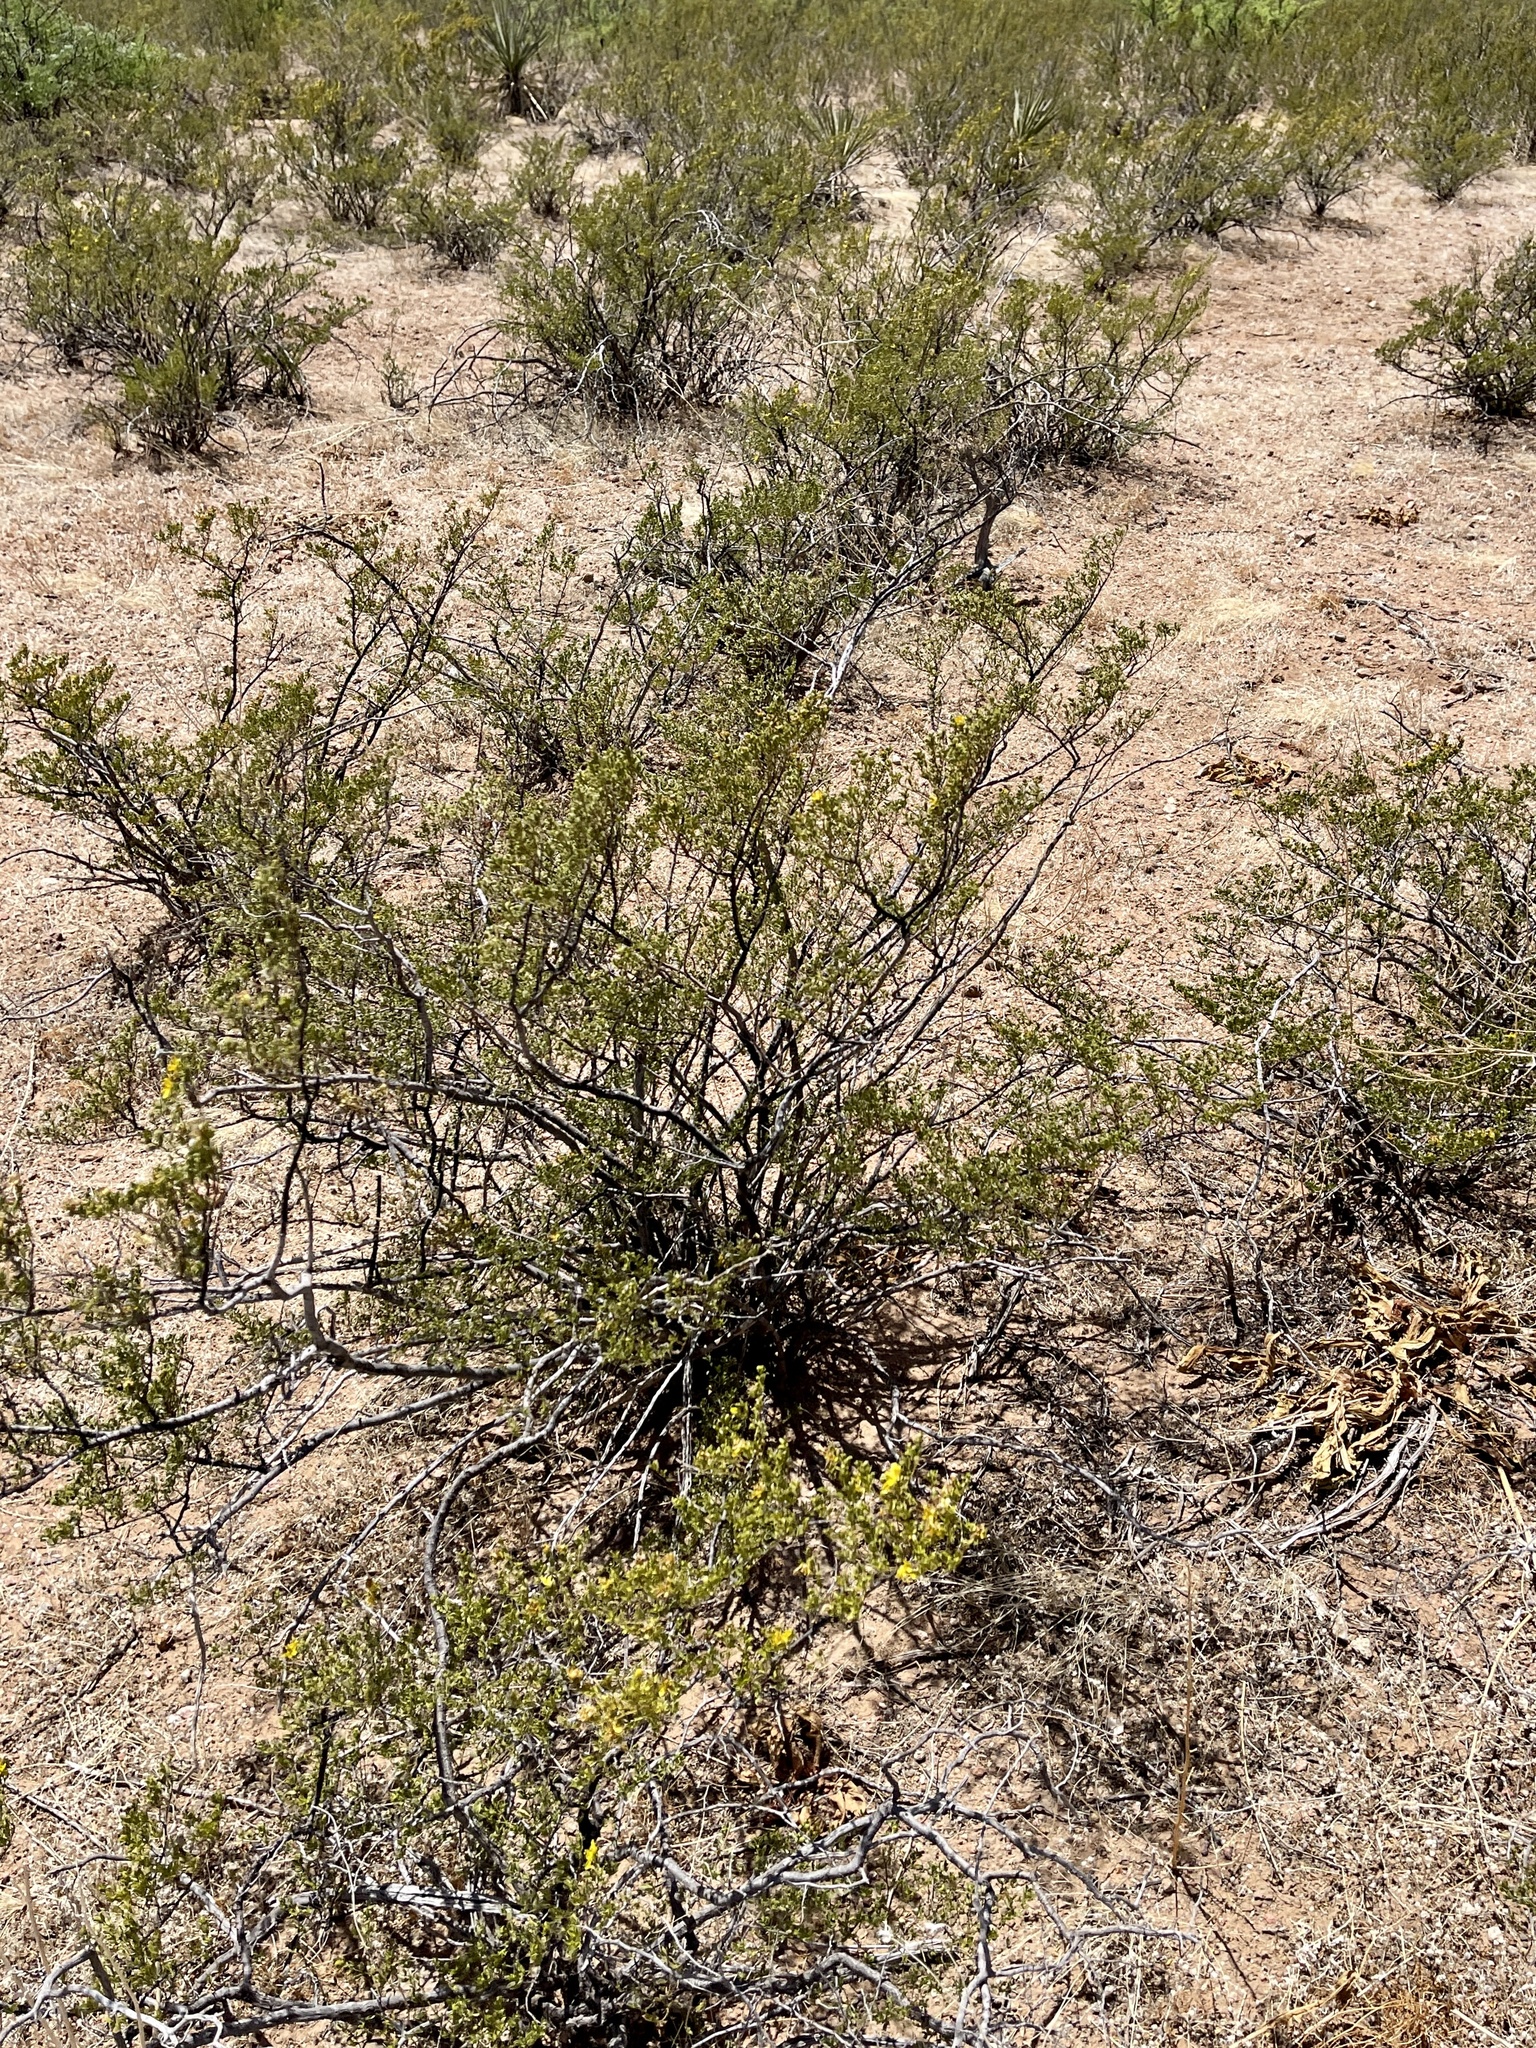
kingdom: Plantae
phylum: Tracheophyta
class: Magnoliopsida
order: Zygophyllales
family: Zygophyllaceae
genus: Larrea
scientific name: Larrea tridentata
